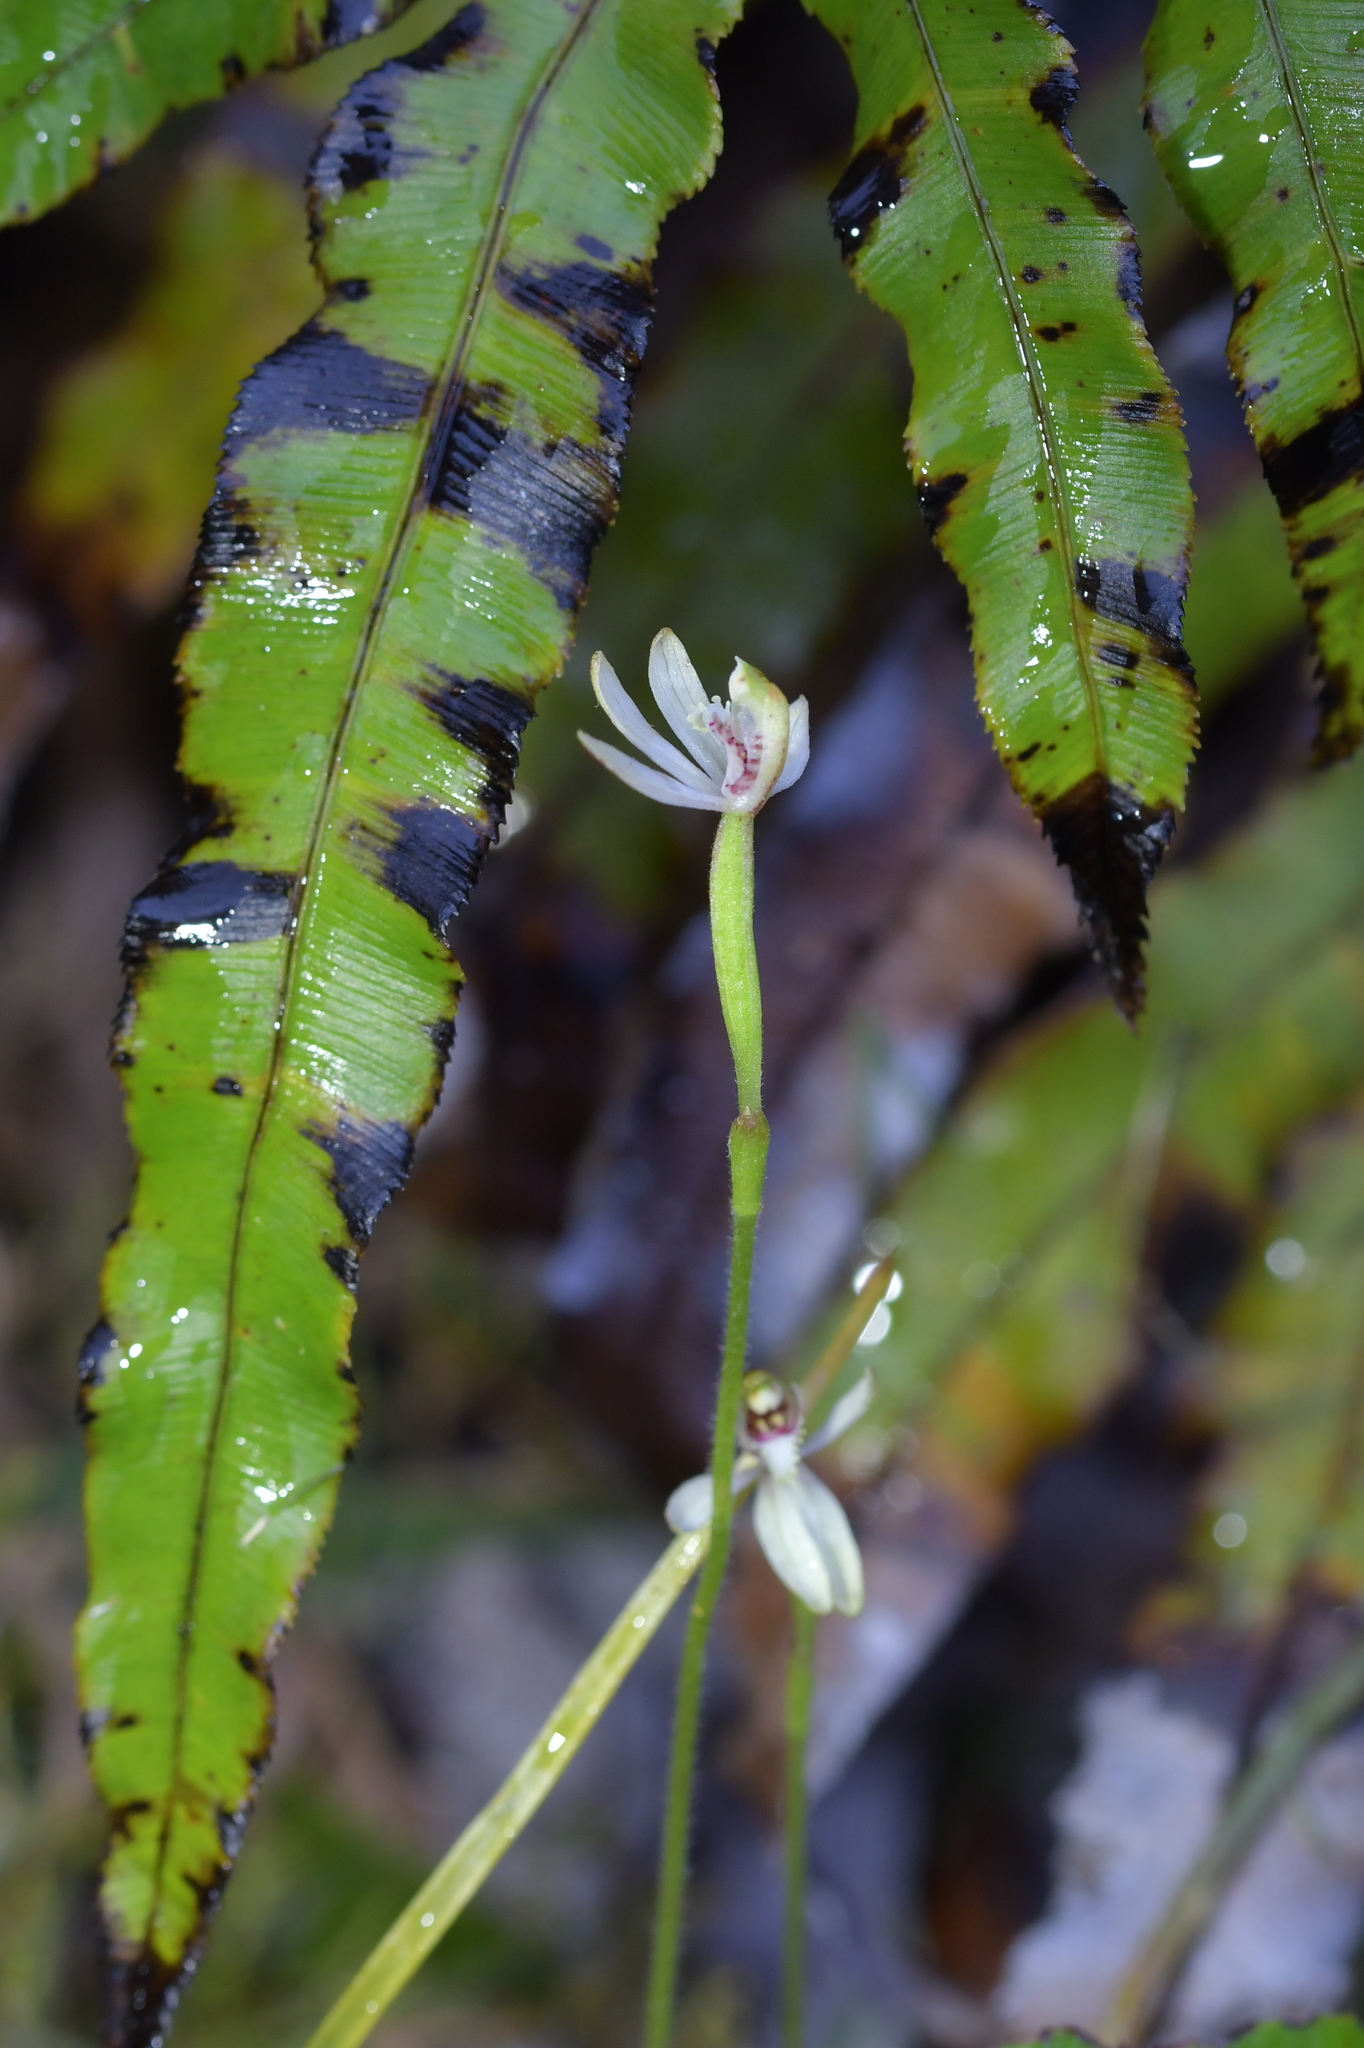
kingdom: Plantae
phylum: Tracheophyta
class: Liliopsida
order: Asparagales
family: Orchidaceae
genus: Caladenia
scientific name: Caladenia chlorostyla
